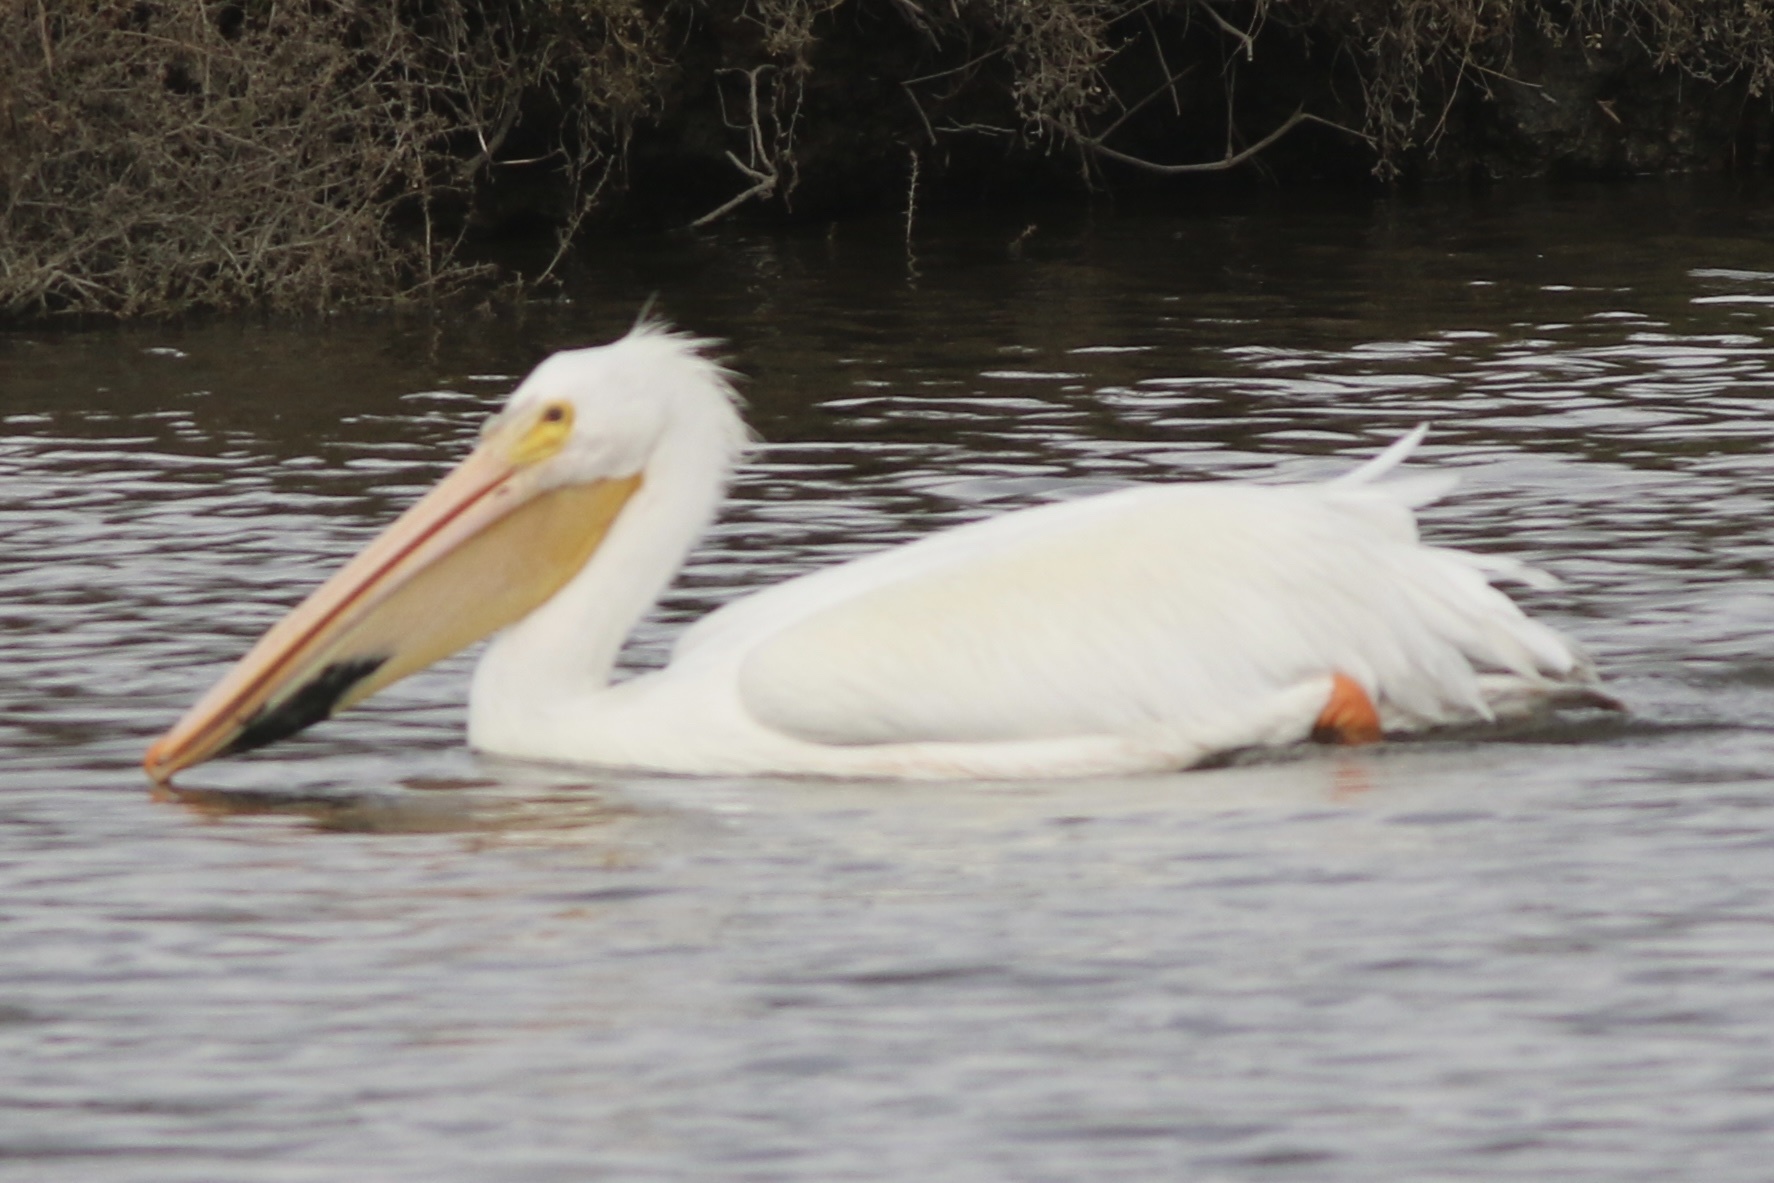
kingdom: Animalia
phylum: Chordata
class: Aves
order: Pelecaniformes
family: Pelecanidae
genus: Pelecanus
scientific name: Pelecanus erythrorhynchos
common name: American white pelican
